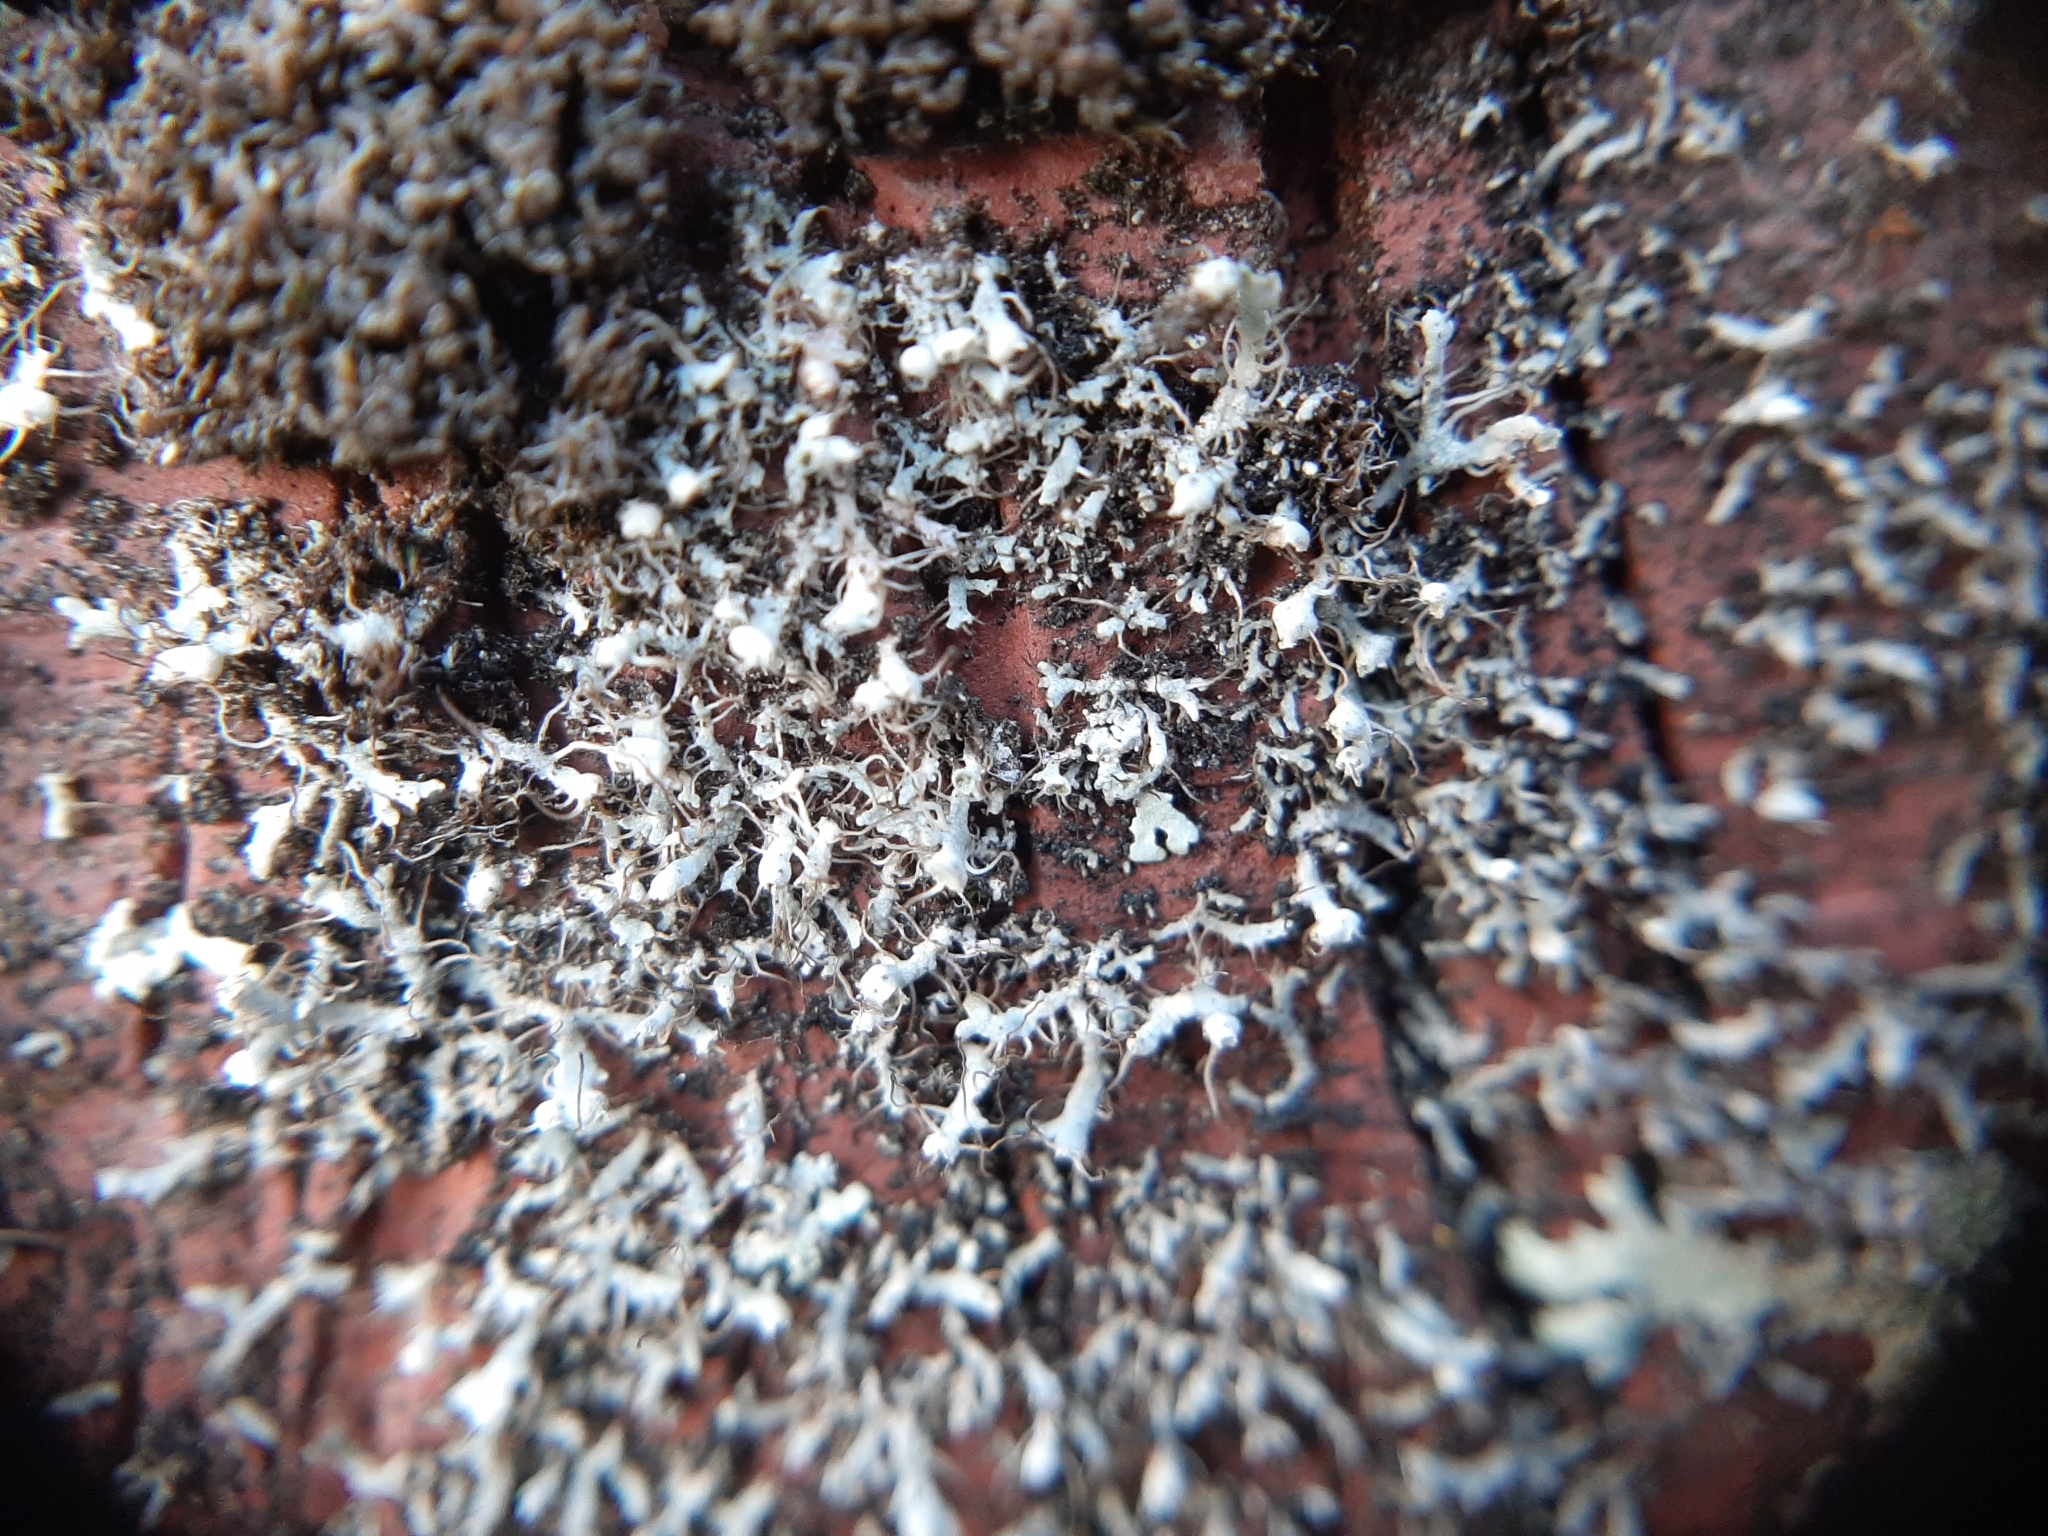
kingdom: Fungi
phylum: Ascomycota
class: Lecanoromycetes
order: Caliciales
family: Physciaceae
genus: Physcia
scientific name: Physcia adscendens
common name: Hooded rosette lichen
